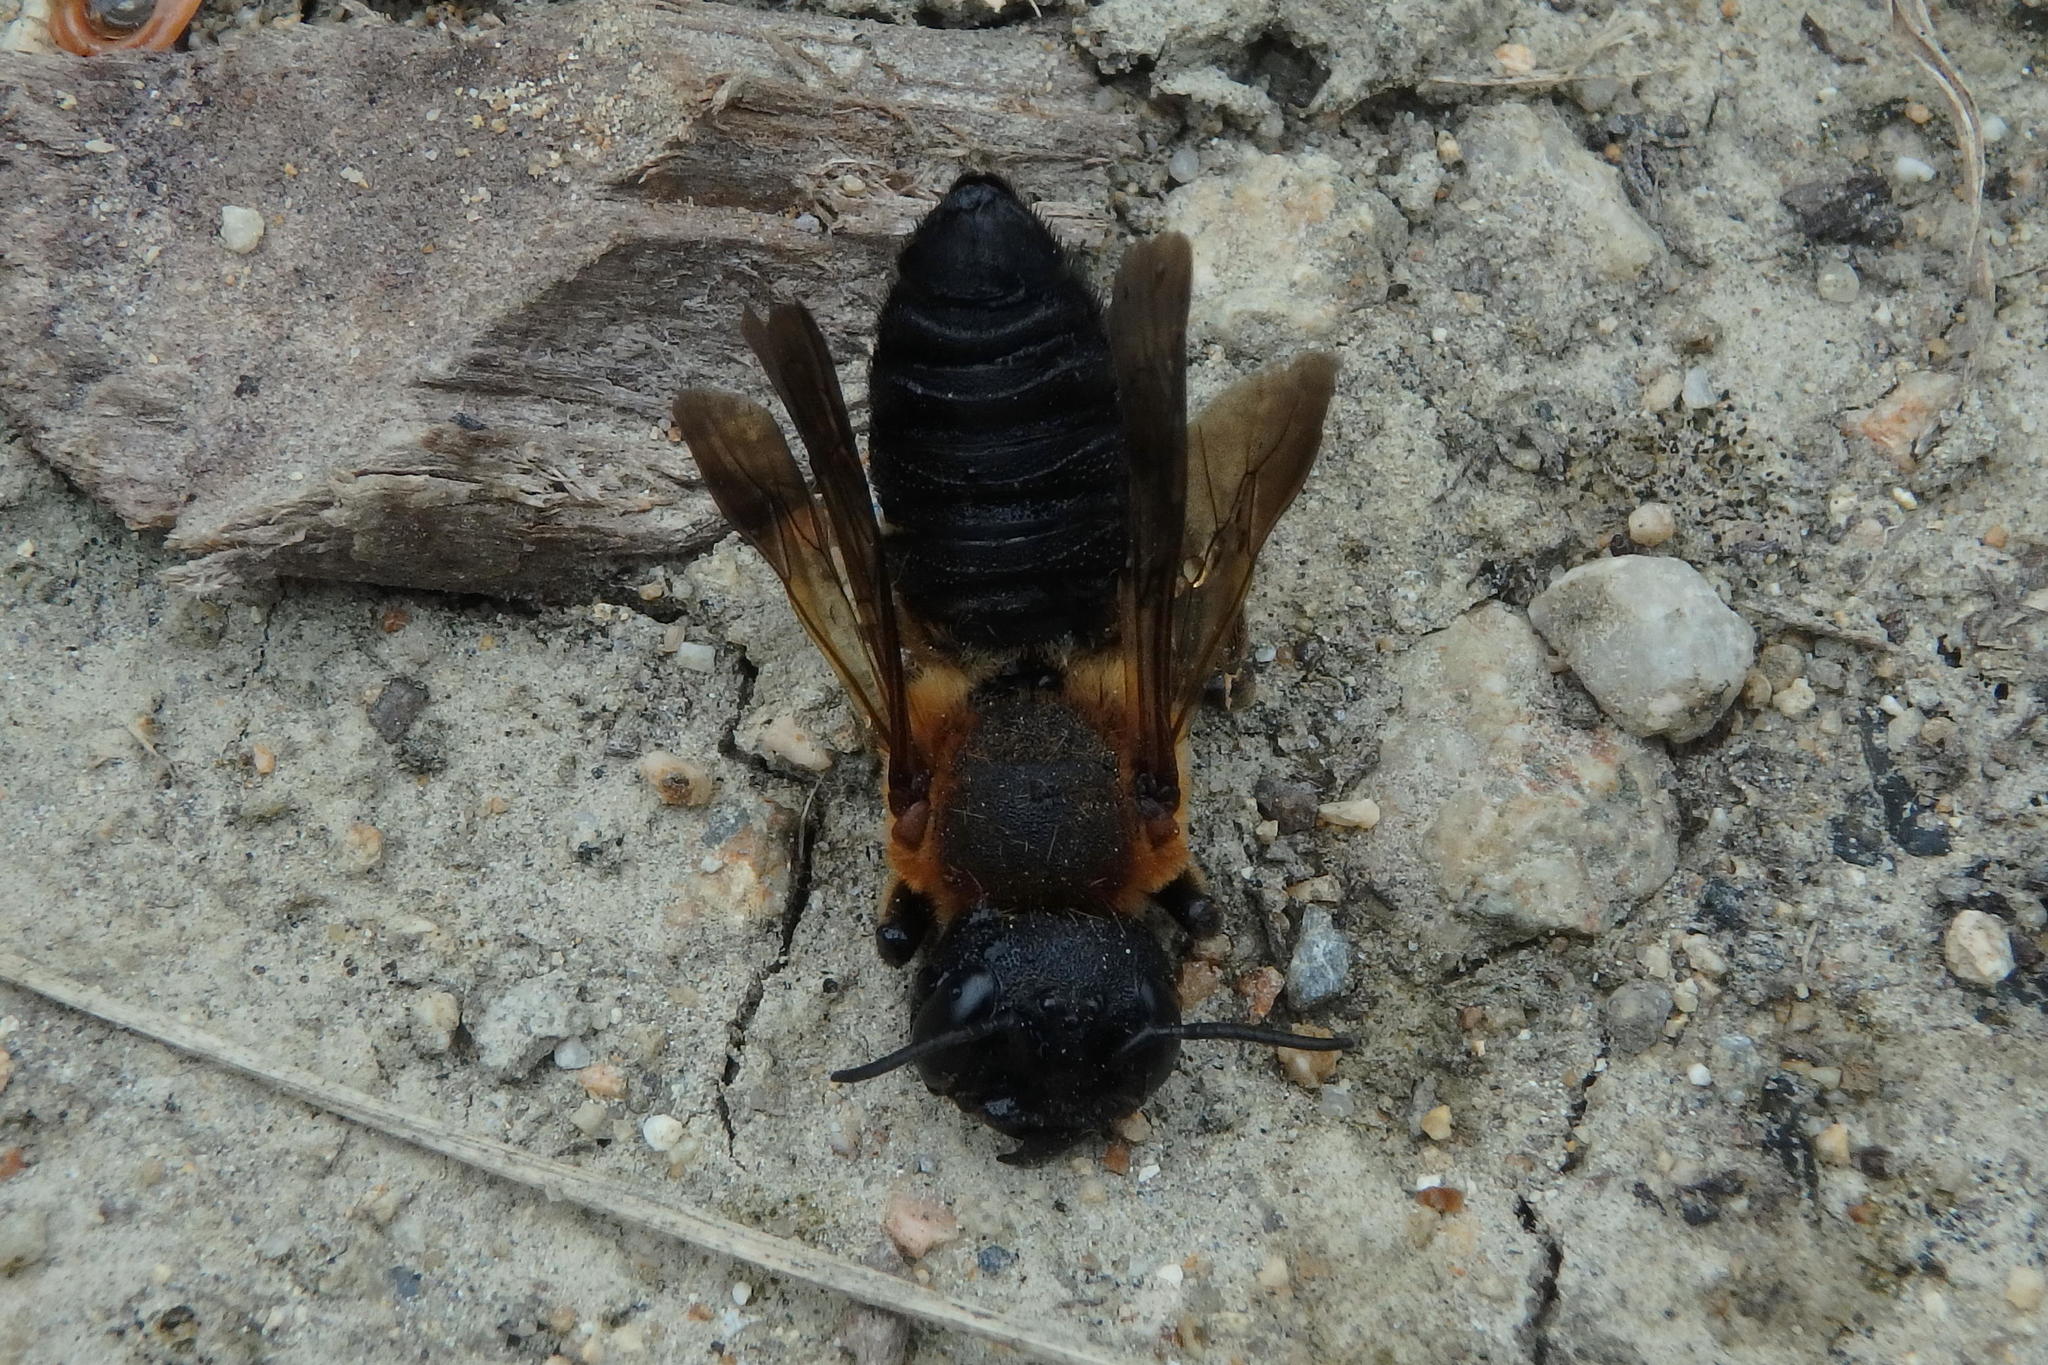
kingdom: Animalia
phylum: Arthropoda
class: Insecta
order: Hymenoptera
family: Megachilidae
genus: Megachile
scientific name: Megachile sculpturalis
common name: Sculptured resin bee
